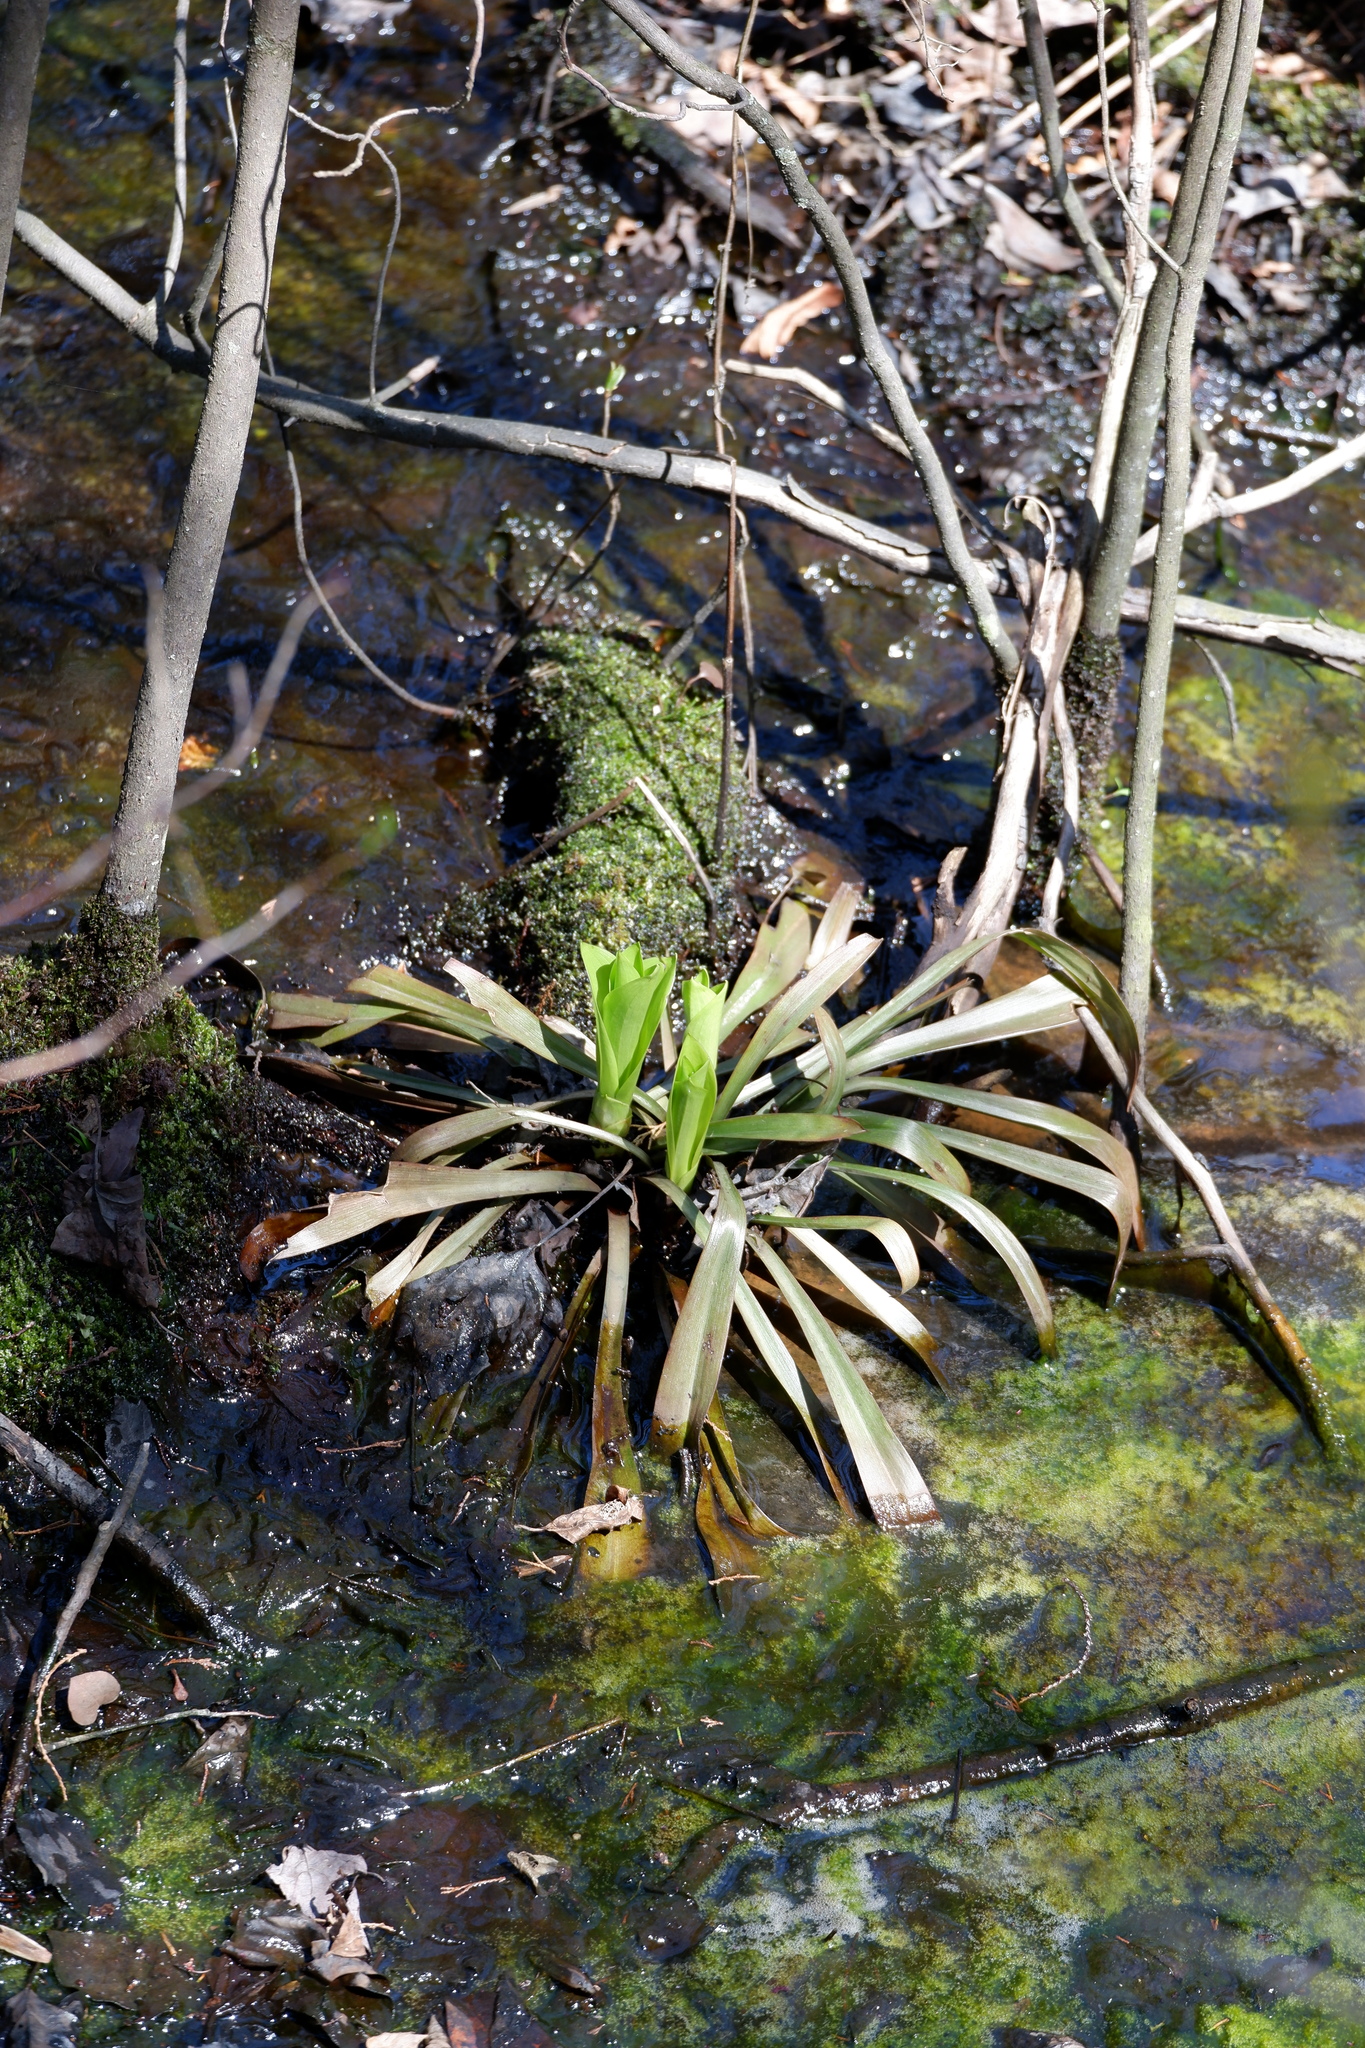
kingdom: Plantae
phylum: Tracheophyta
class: Liliopsida
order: Liliales
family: Melanthiaceae
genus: Helonias
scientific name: Helonias bullata
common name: Swamp-pink
